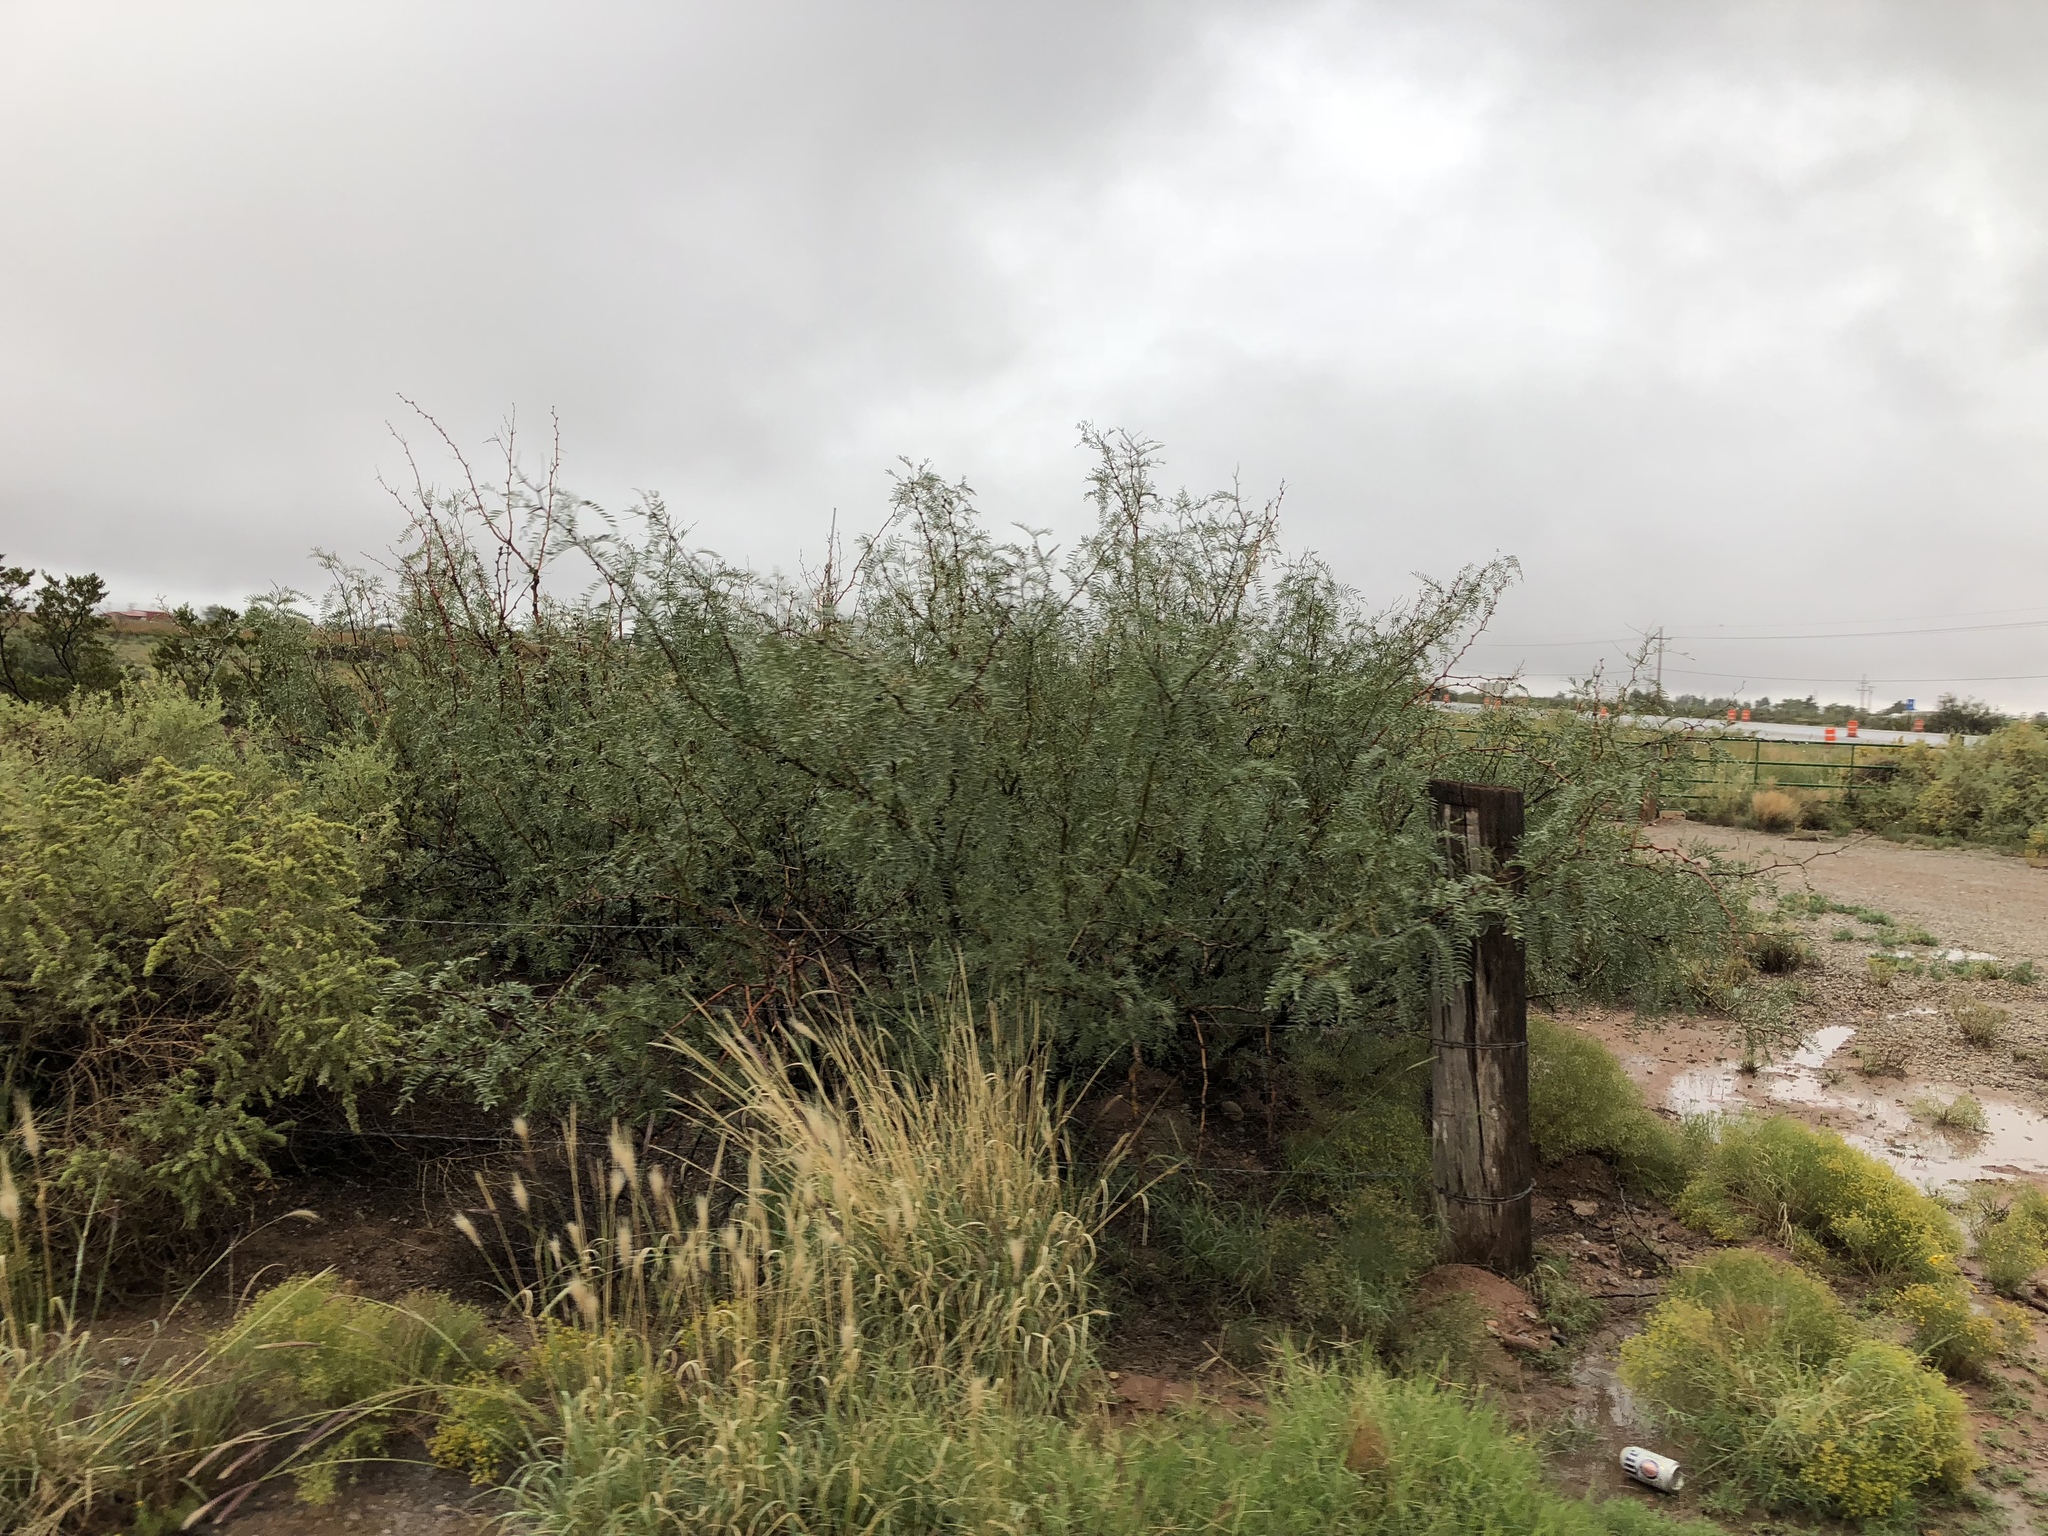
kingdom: Plantae
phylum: Tracheophyta
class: Magnoliopsida
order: Fabales
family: Fabaceae
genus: Prosopis
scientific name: Prosopis glandulosa
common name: Honey mesquite
